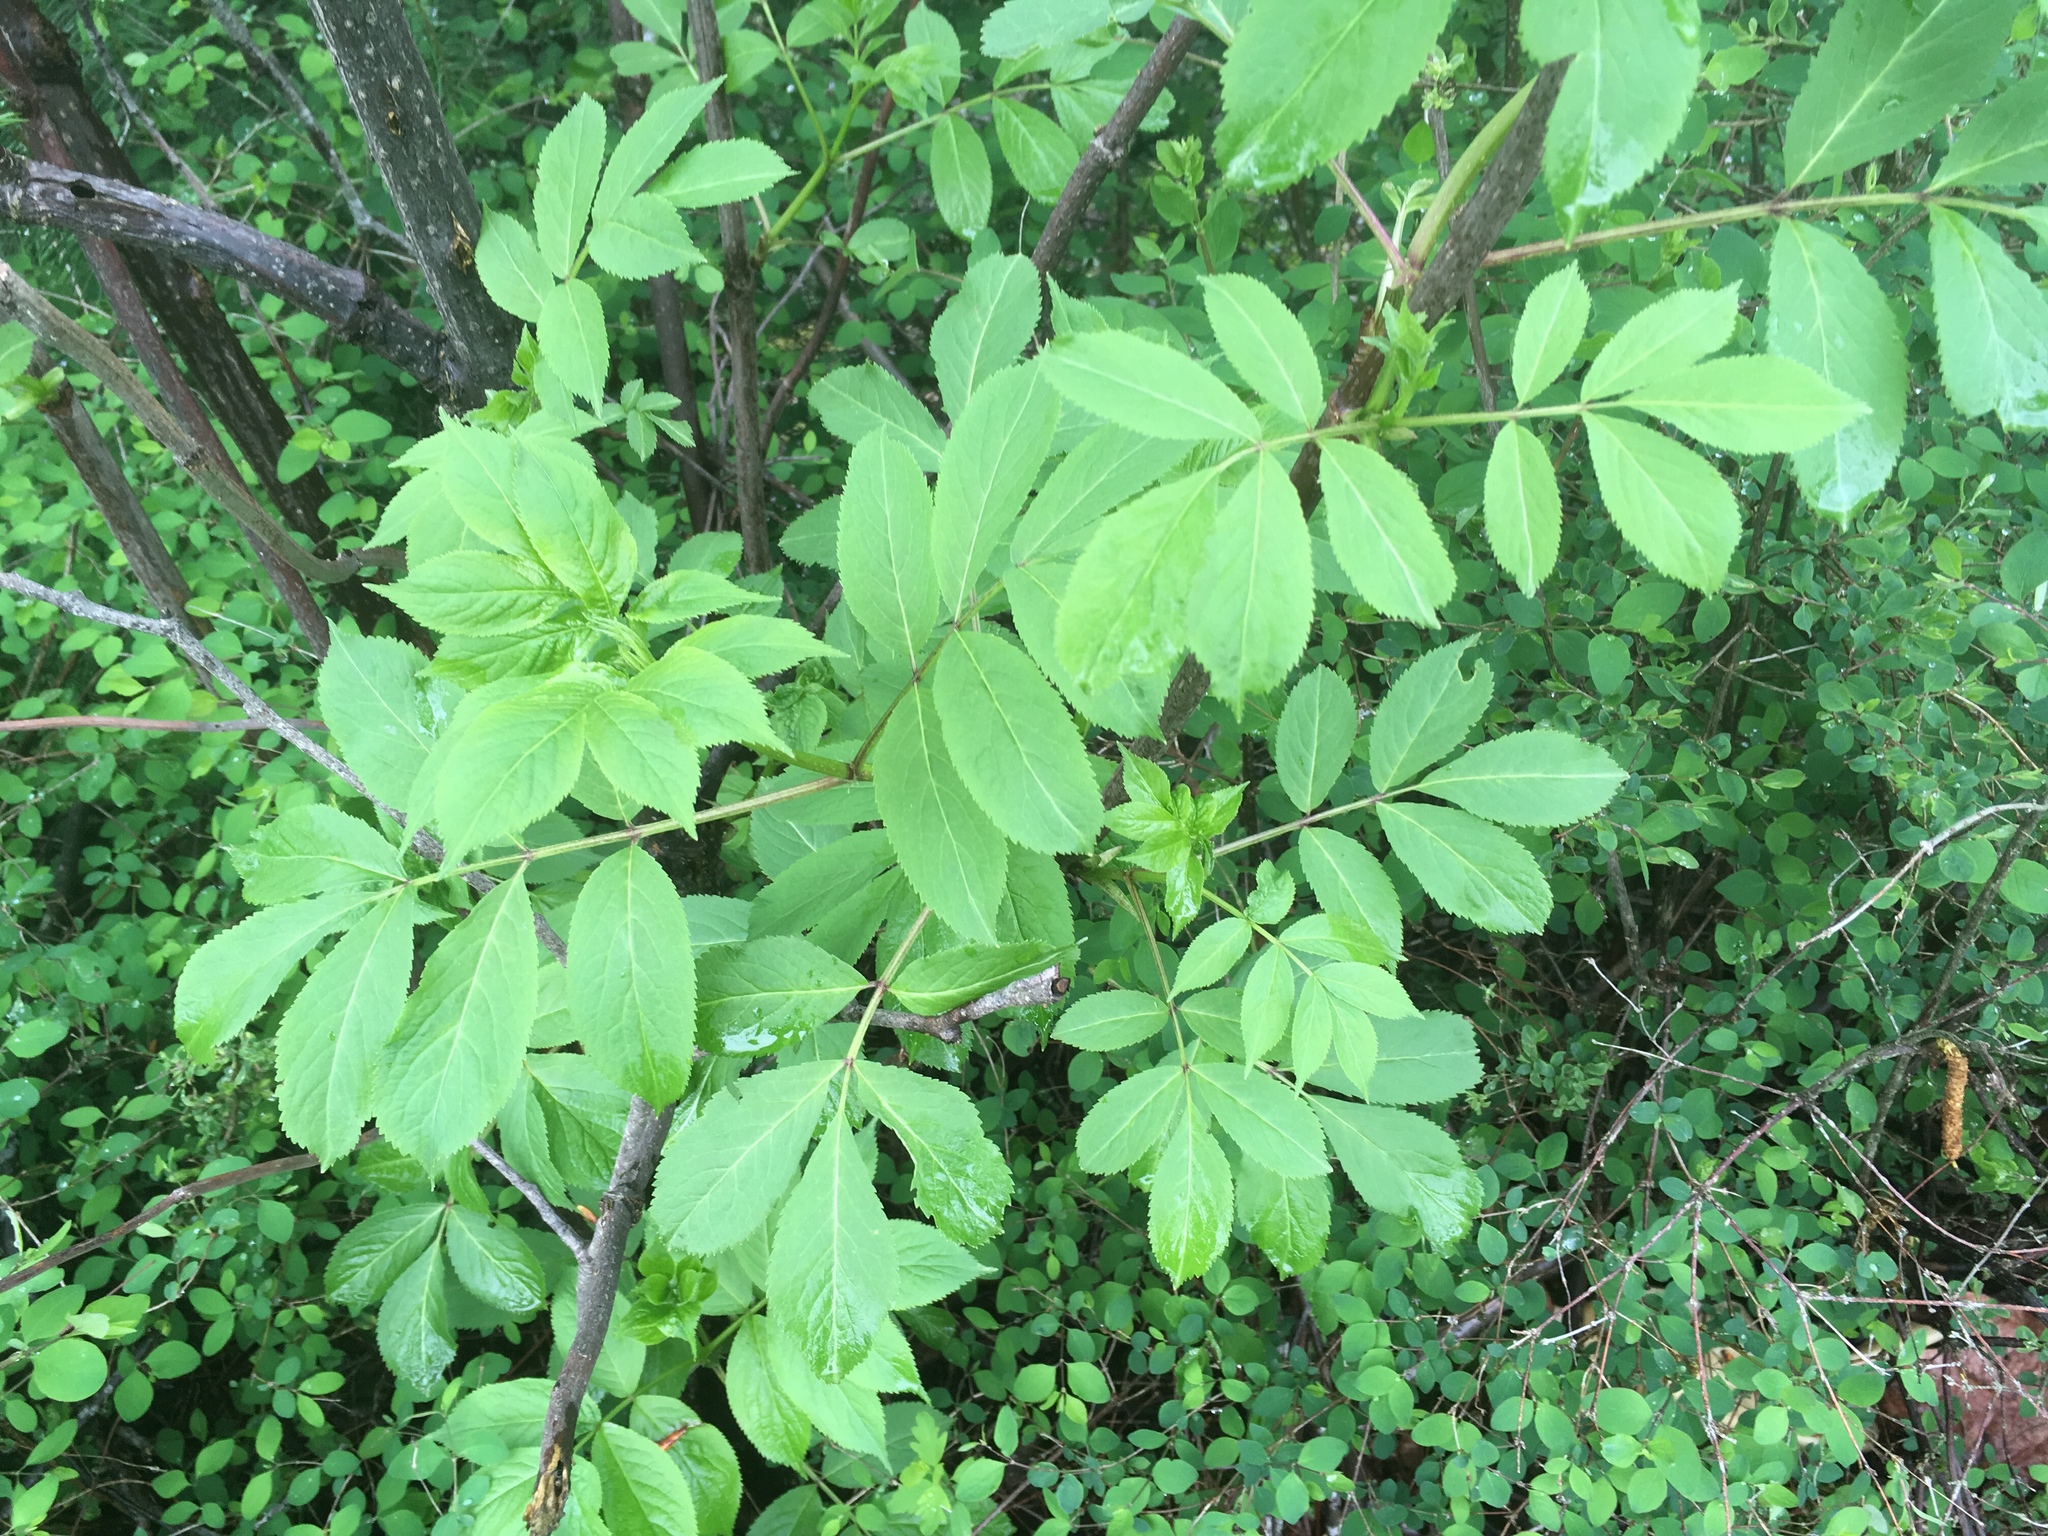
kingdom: Plantae
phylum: Tracheophyta
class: Magnoliopsida
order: Dipsacales
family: Viburnaceae
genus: Sambucus
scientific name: Sambucus racemosa
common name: Red-berried elder
